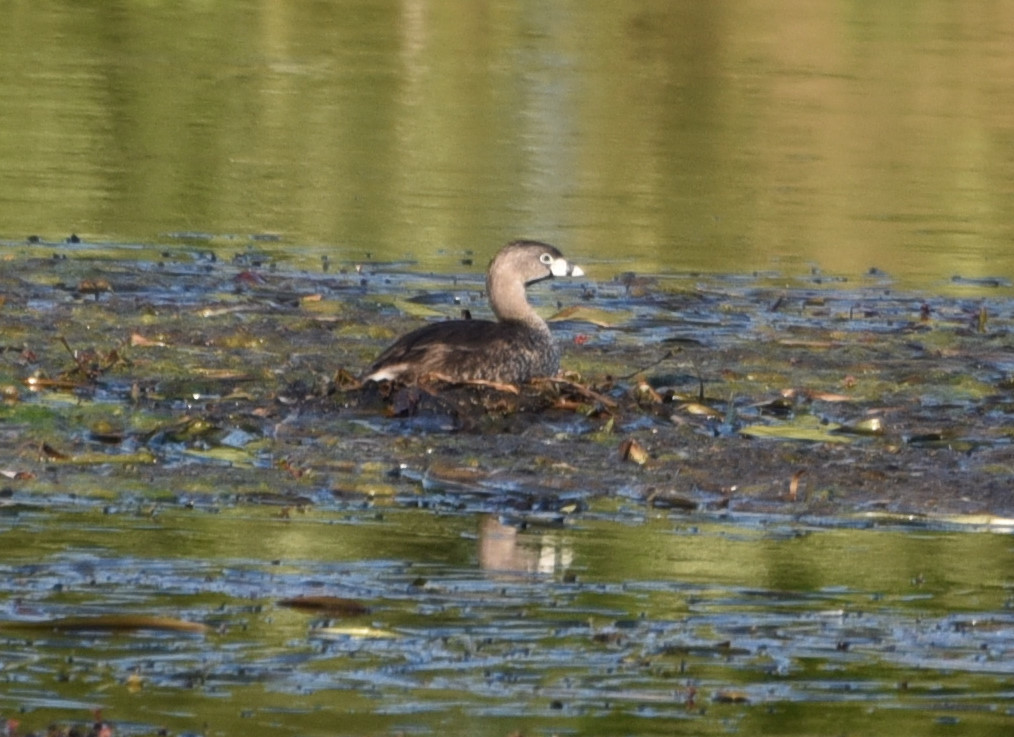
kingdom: Animalia
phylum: Chordata
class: Aves
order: Podicipediformes
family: Podicipedidae
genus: Podilymbus
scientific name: Podilymbus podiceps
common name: Pied-billed grebe
